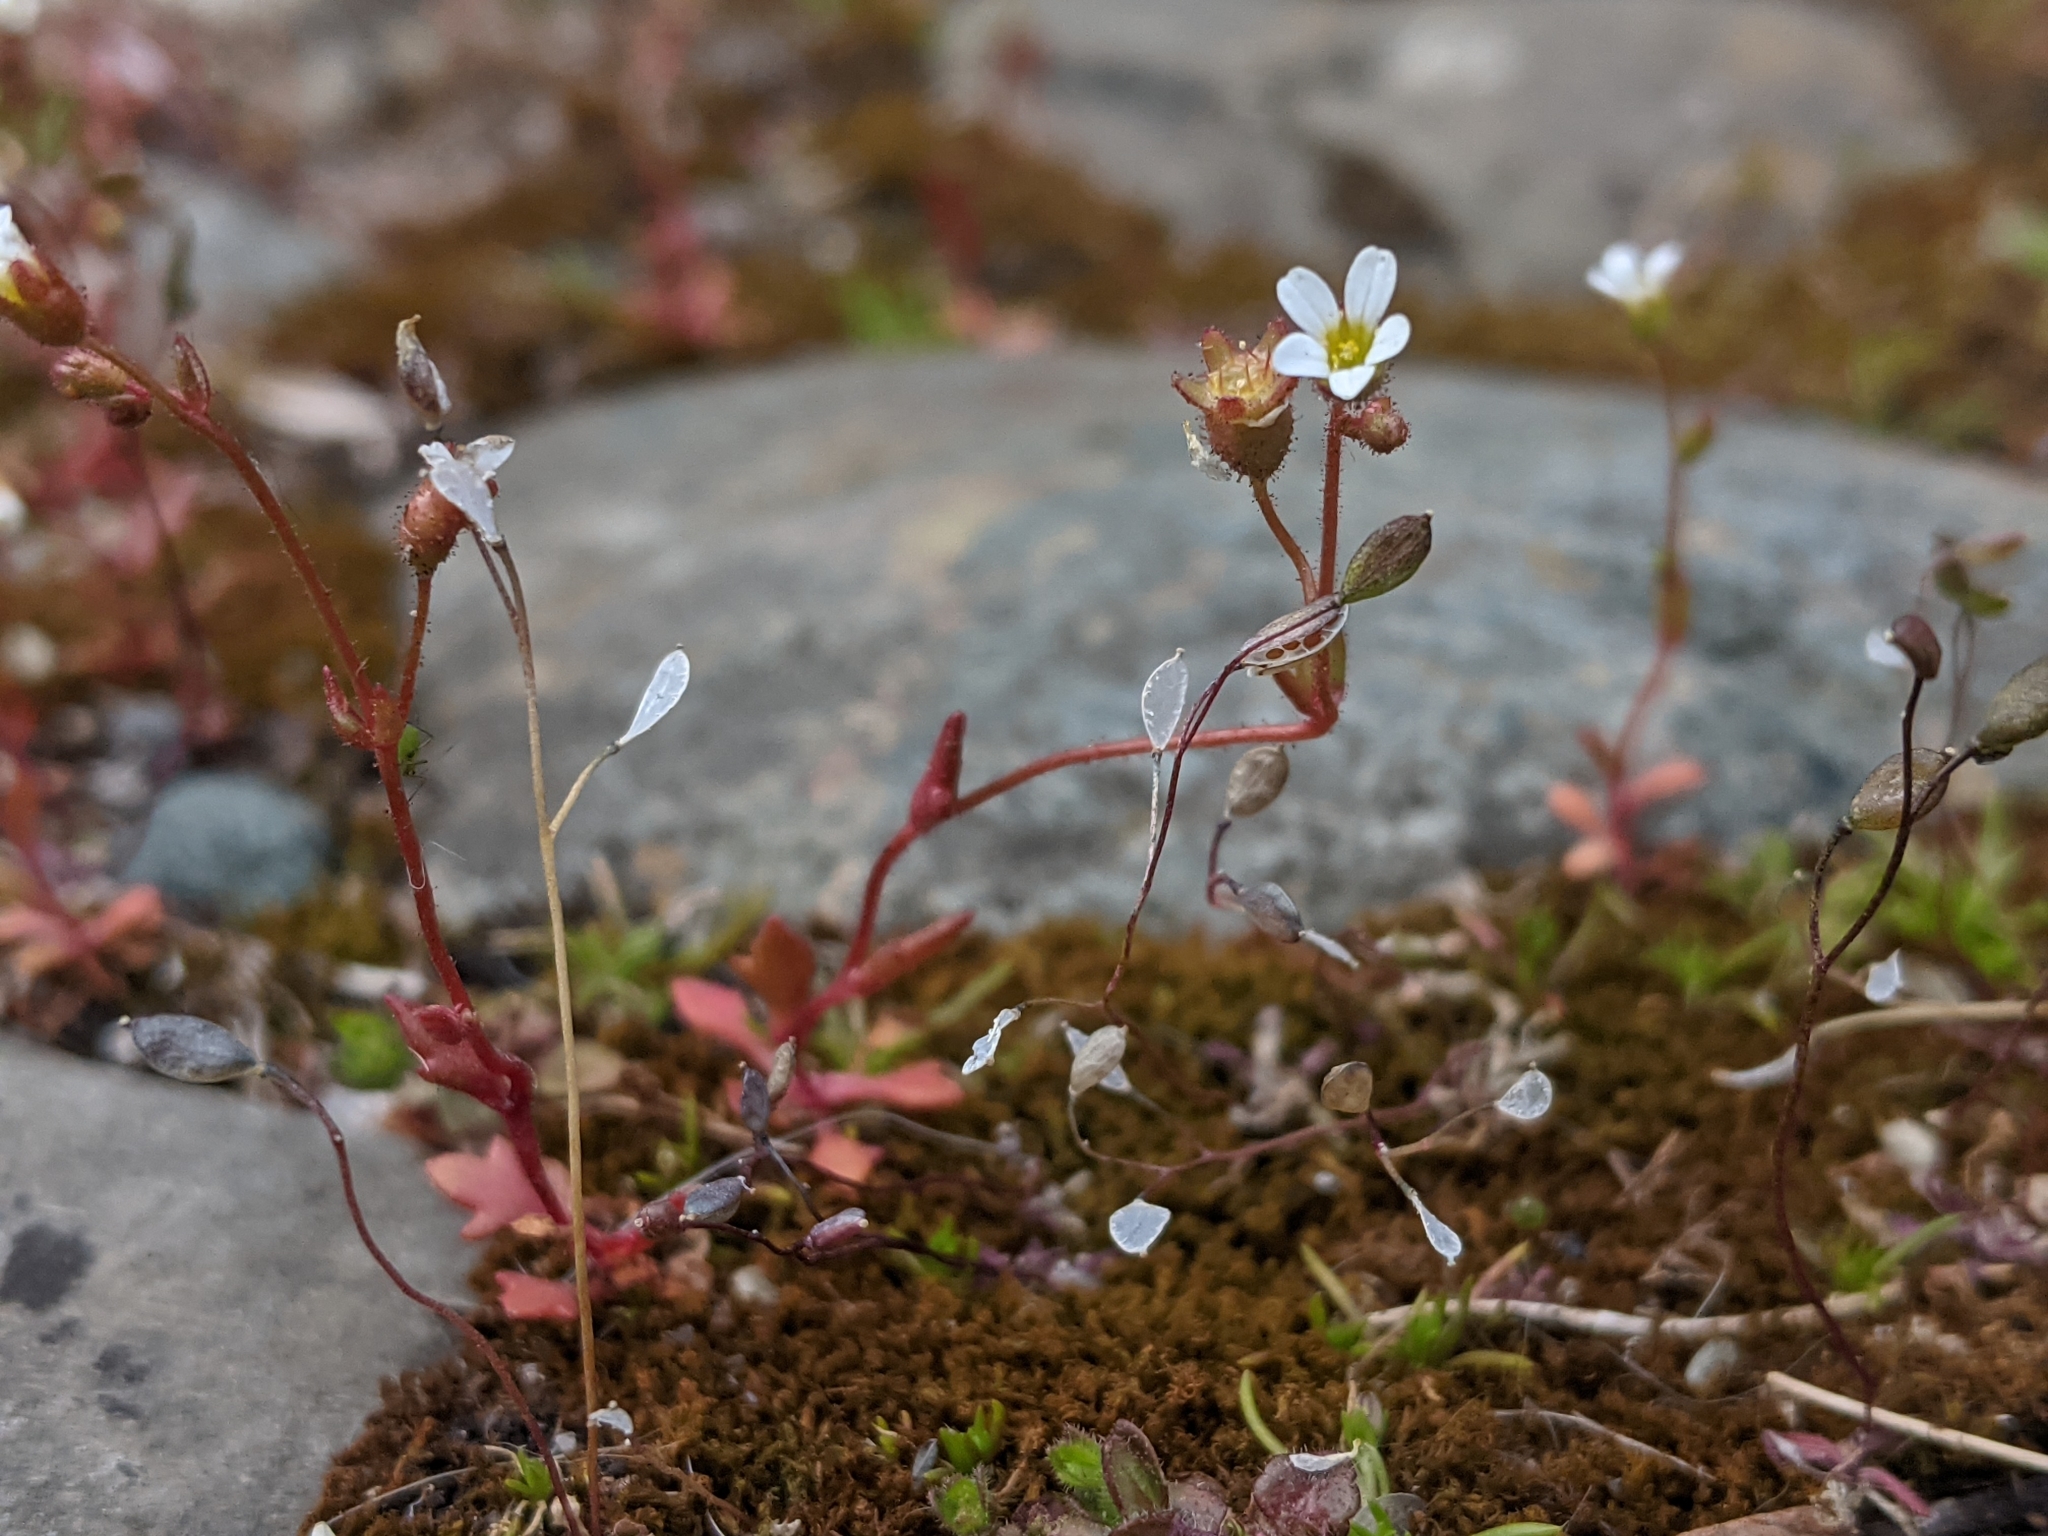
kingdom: Plantae
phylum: Tracheophyta
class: Magnoliopsida
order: Saxifragales
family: Saxifragaceae
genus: Saxifraga
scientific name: Saxifraga tridactylites
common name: Rue-leaved saxifrage
